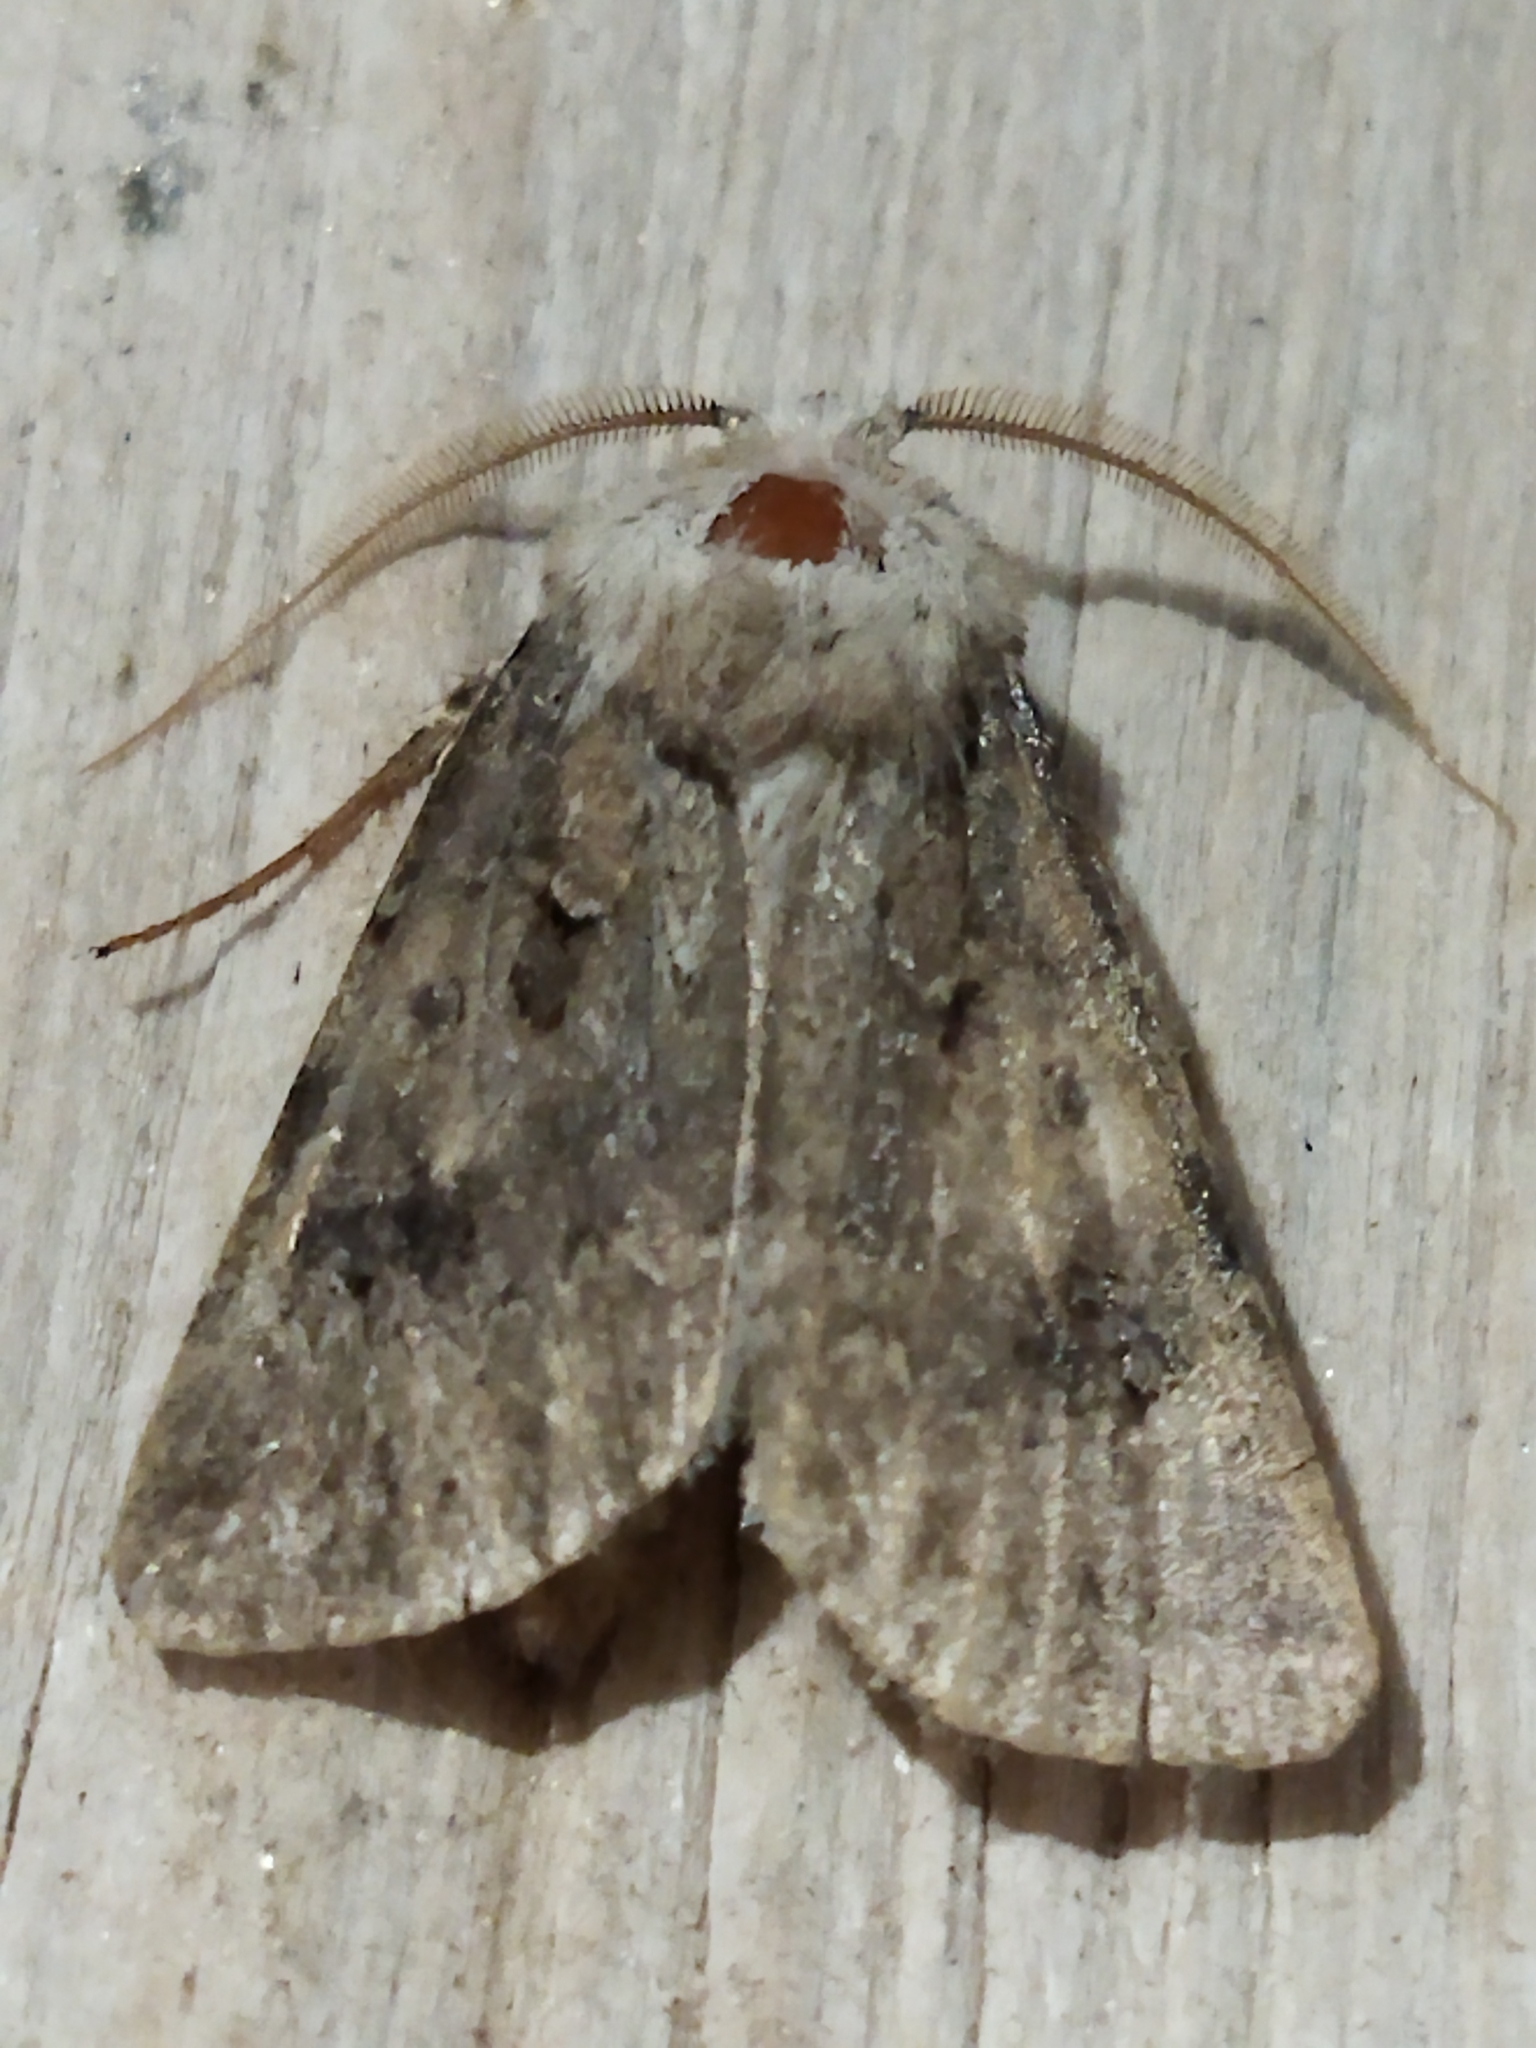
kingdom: Animalia
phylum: Arthropoda
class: Insecta
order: Lepidoptera
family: Noctuidae
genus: Agrotis
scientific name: Agrotis bigramma
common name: Great dart
